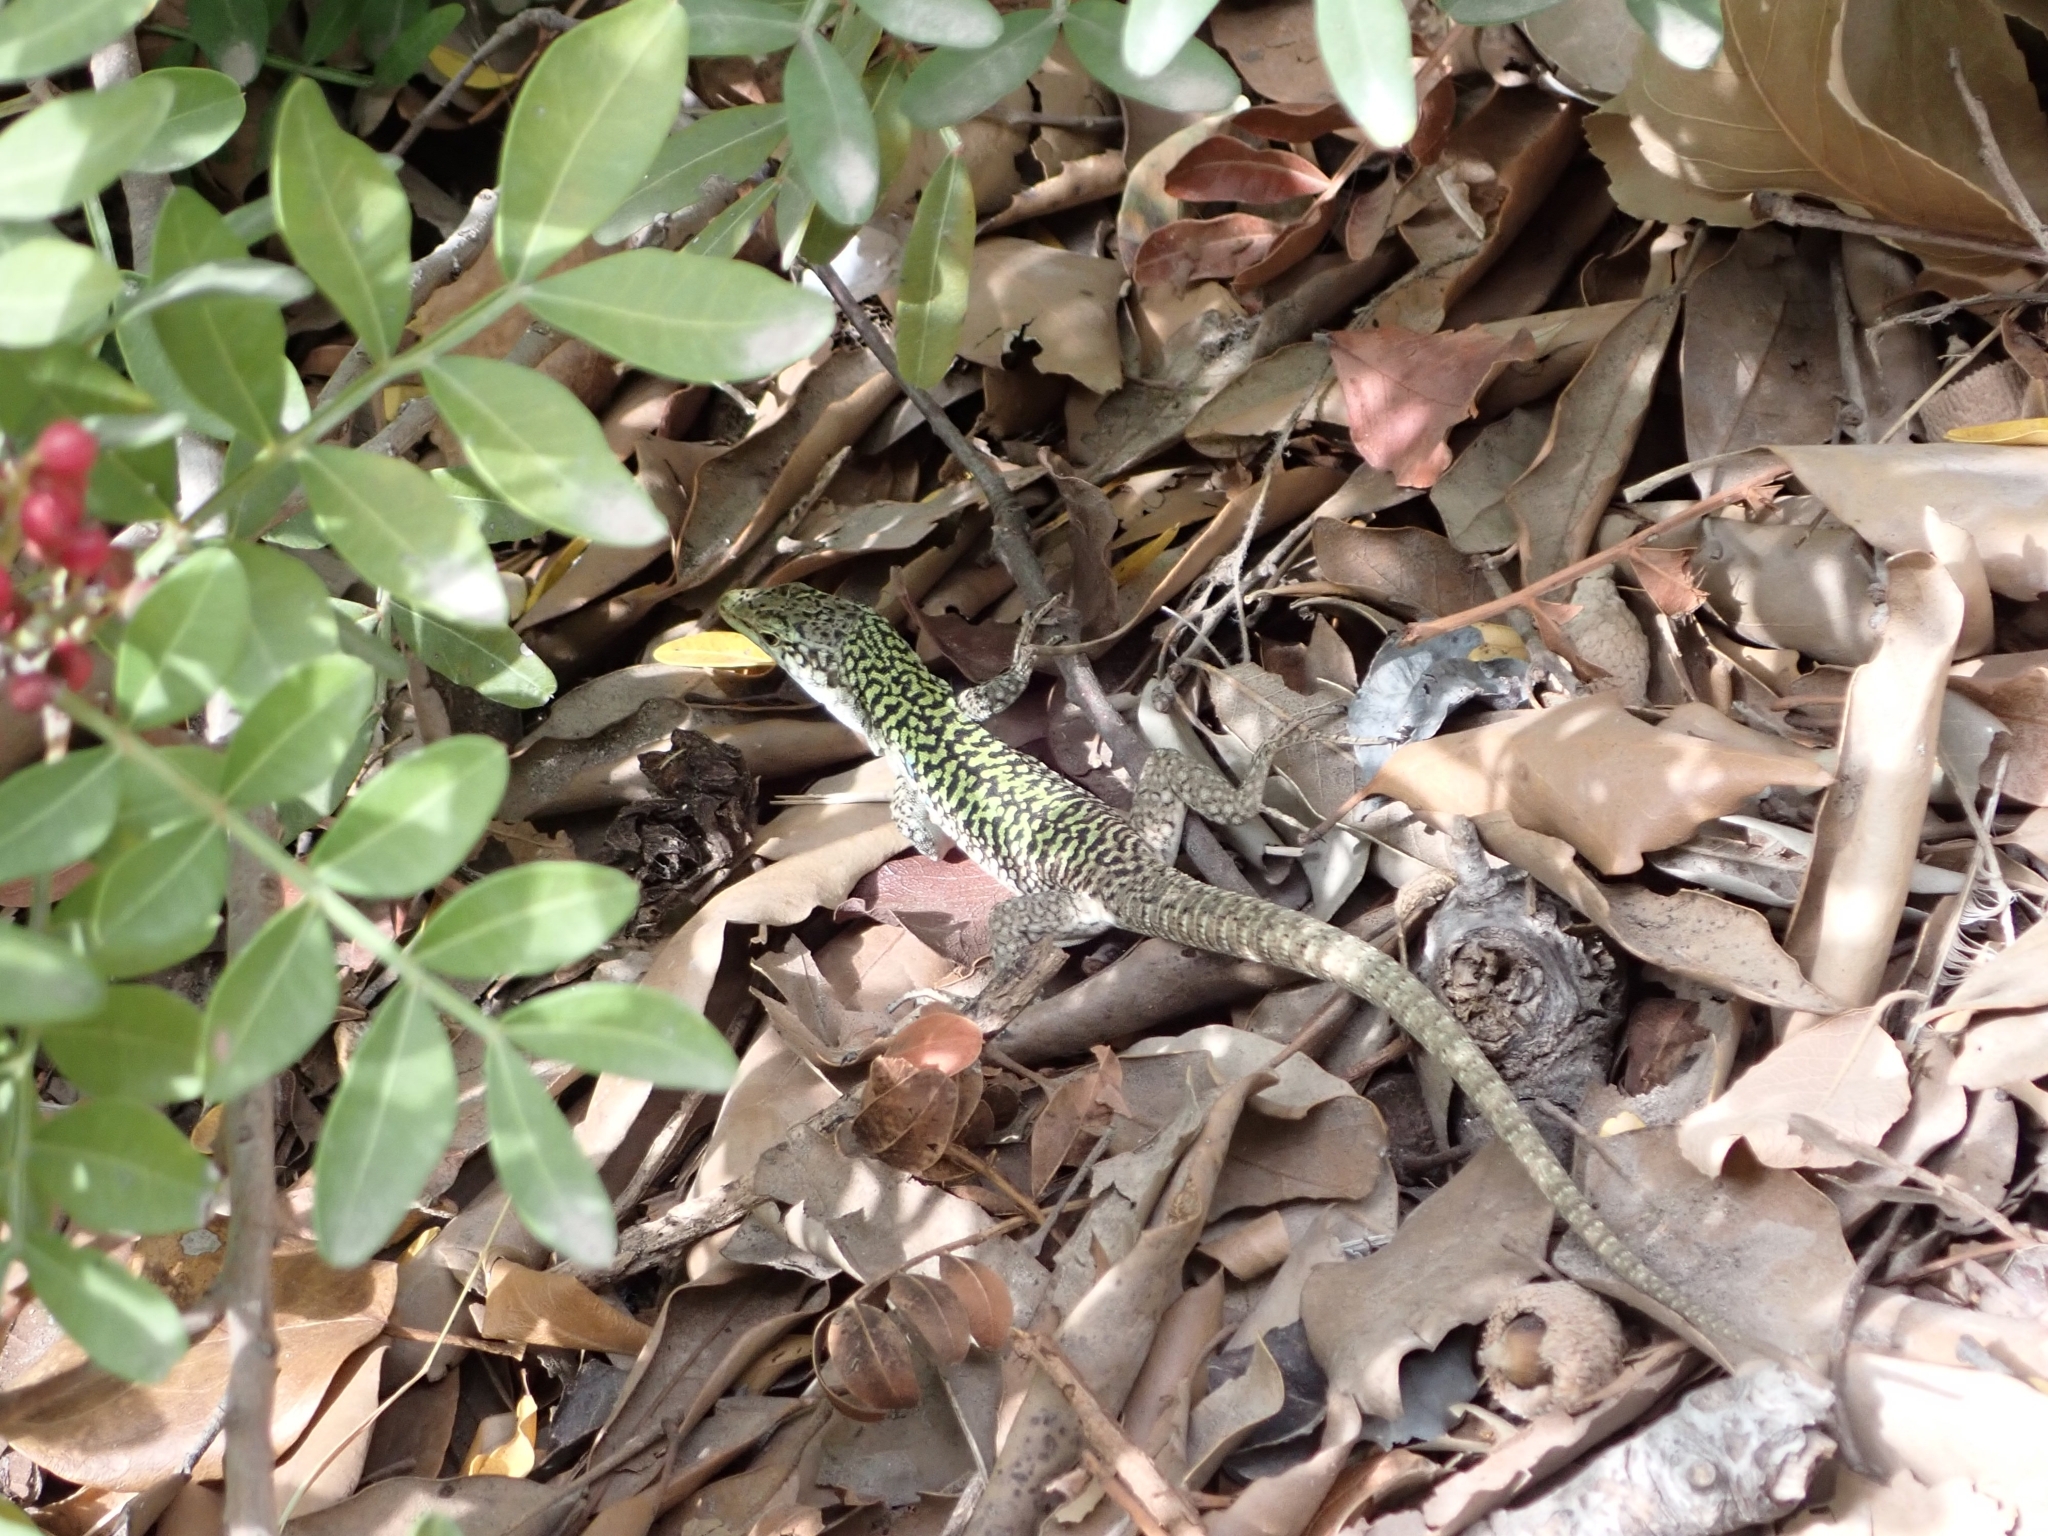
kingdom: Animalia
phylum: Chordata
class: Squamata
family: Lacertidae
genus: Podarcis
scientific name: Podarcis siculus
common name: Italian wall lizard
